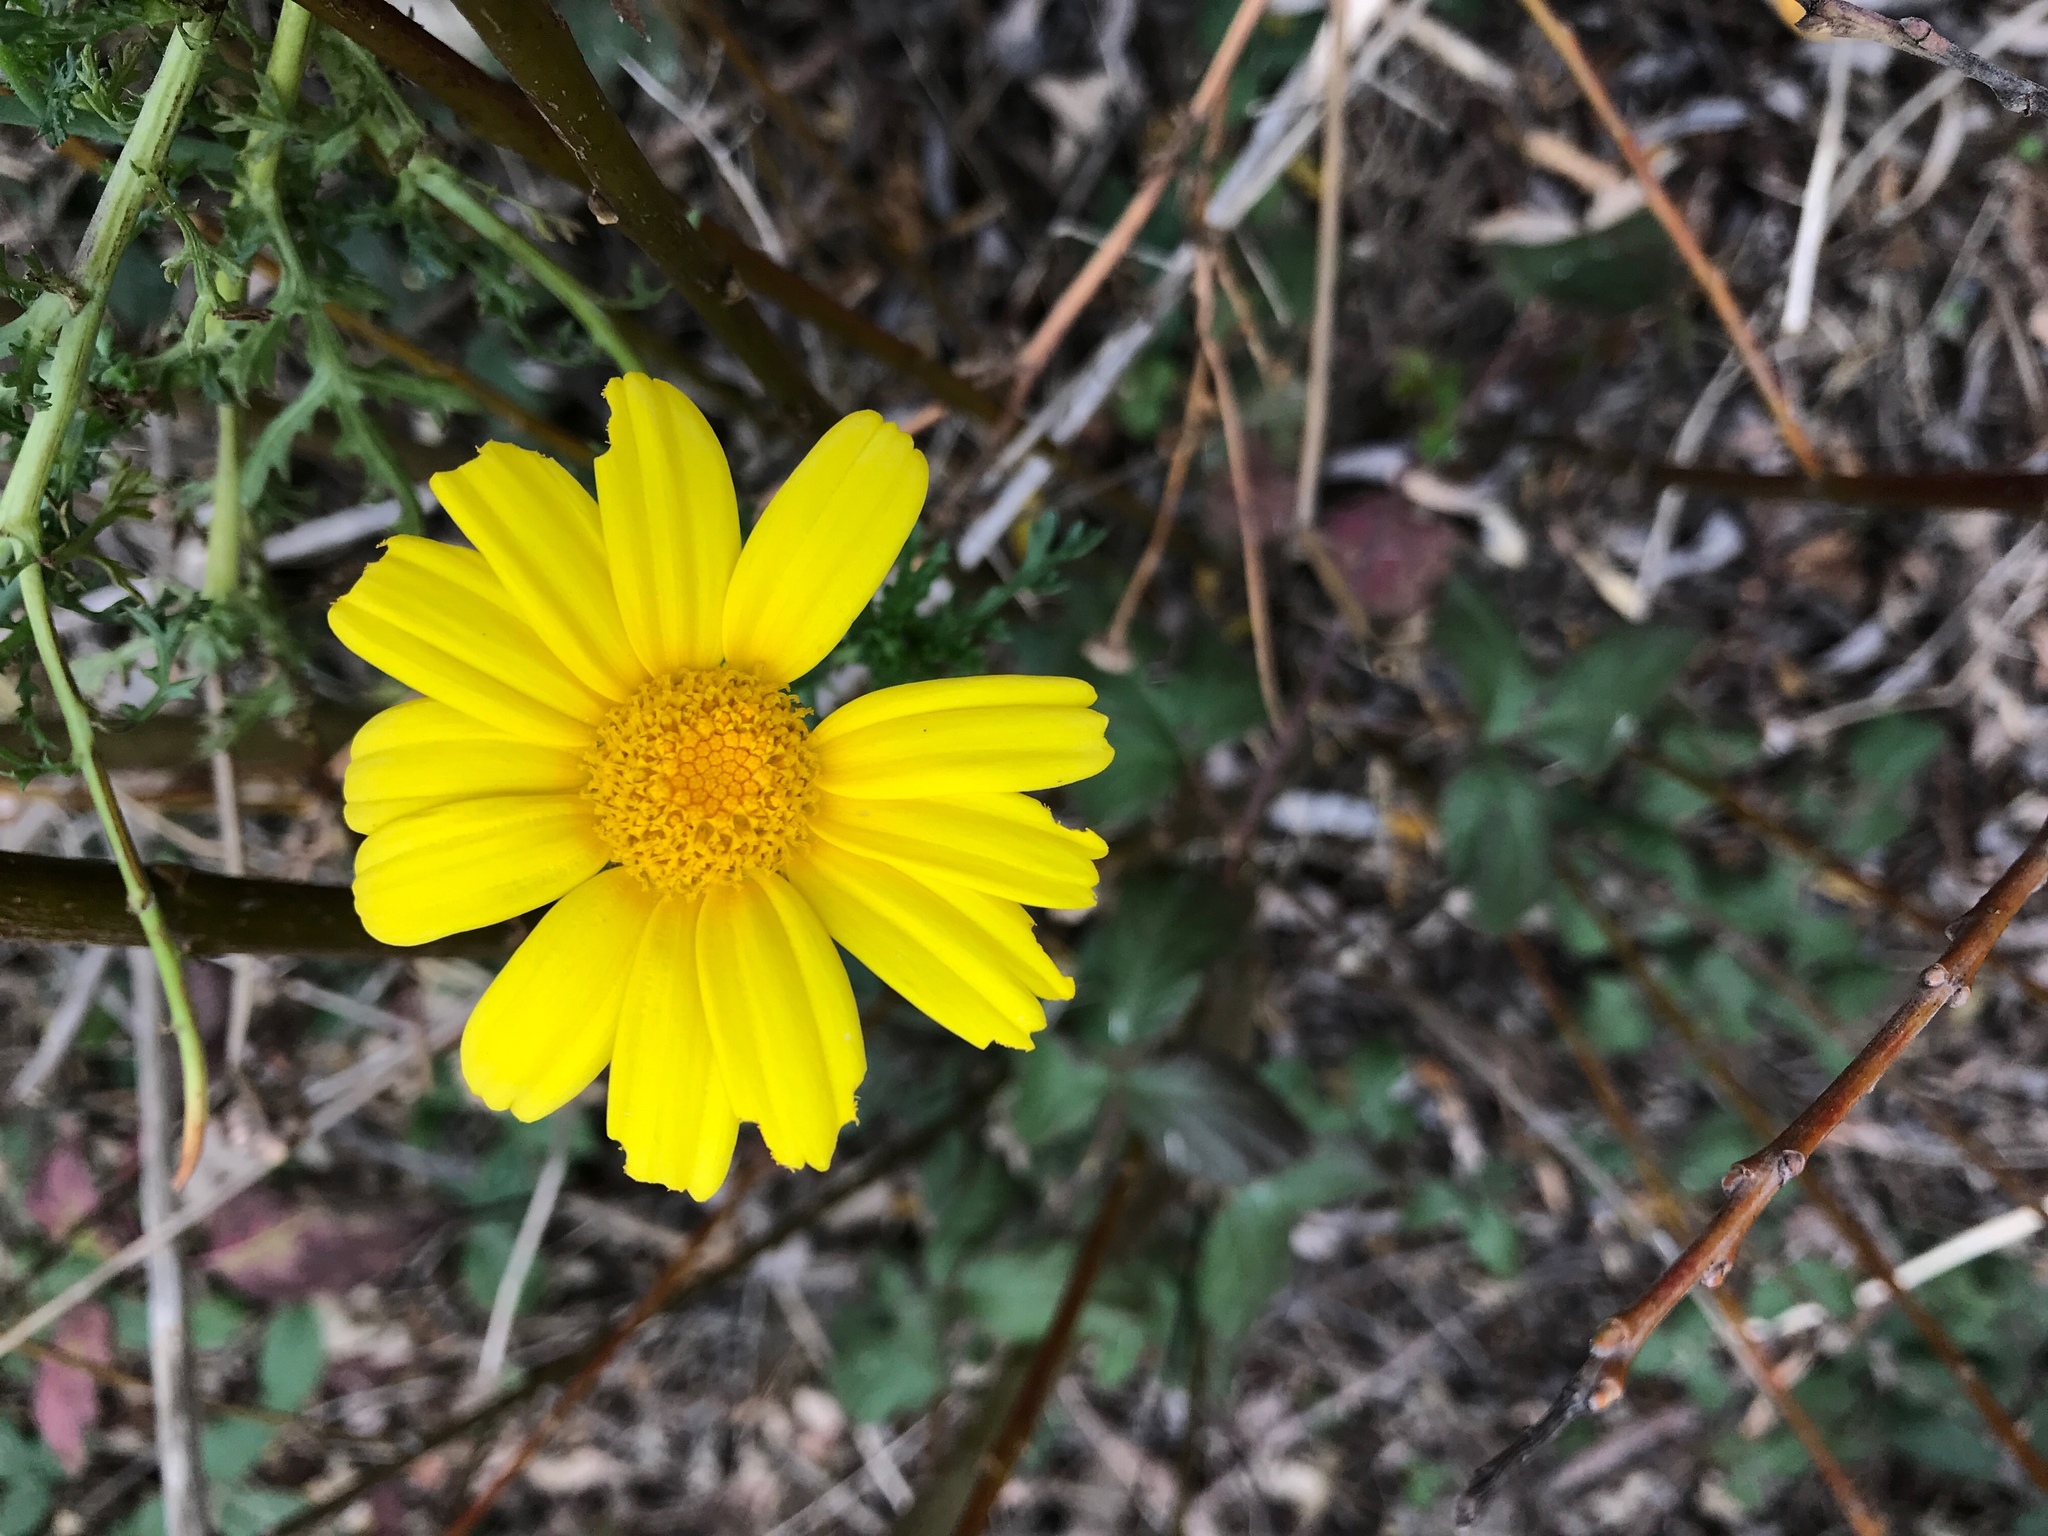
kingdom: Plantae
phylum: Tracheophyta
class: Magnoliopsida
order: Asterales
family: Asteraceae
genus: Glebionis
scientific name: Glebionis coronaria
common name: Crowndaisy
